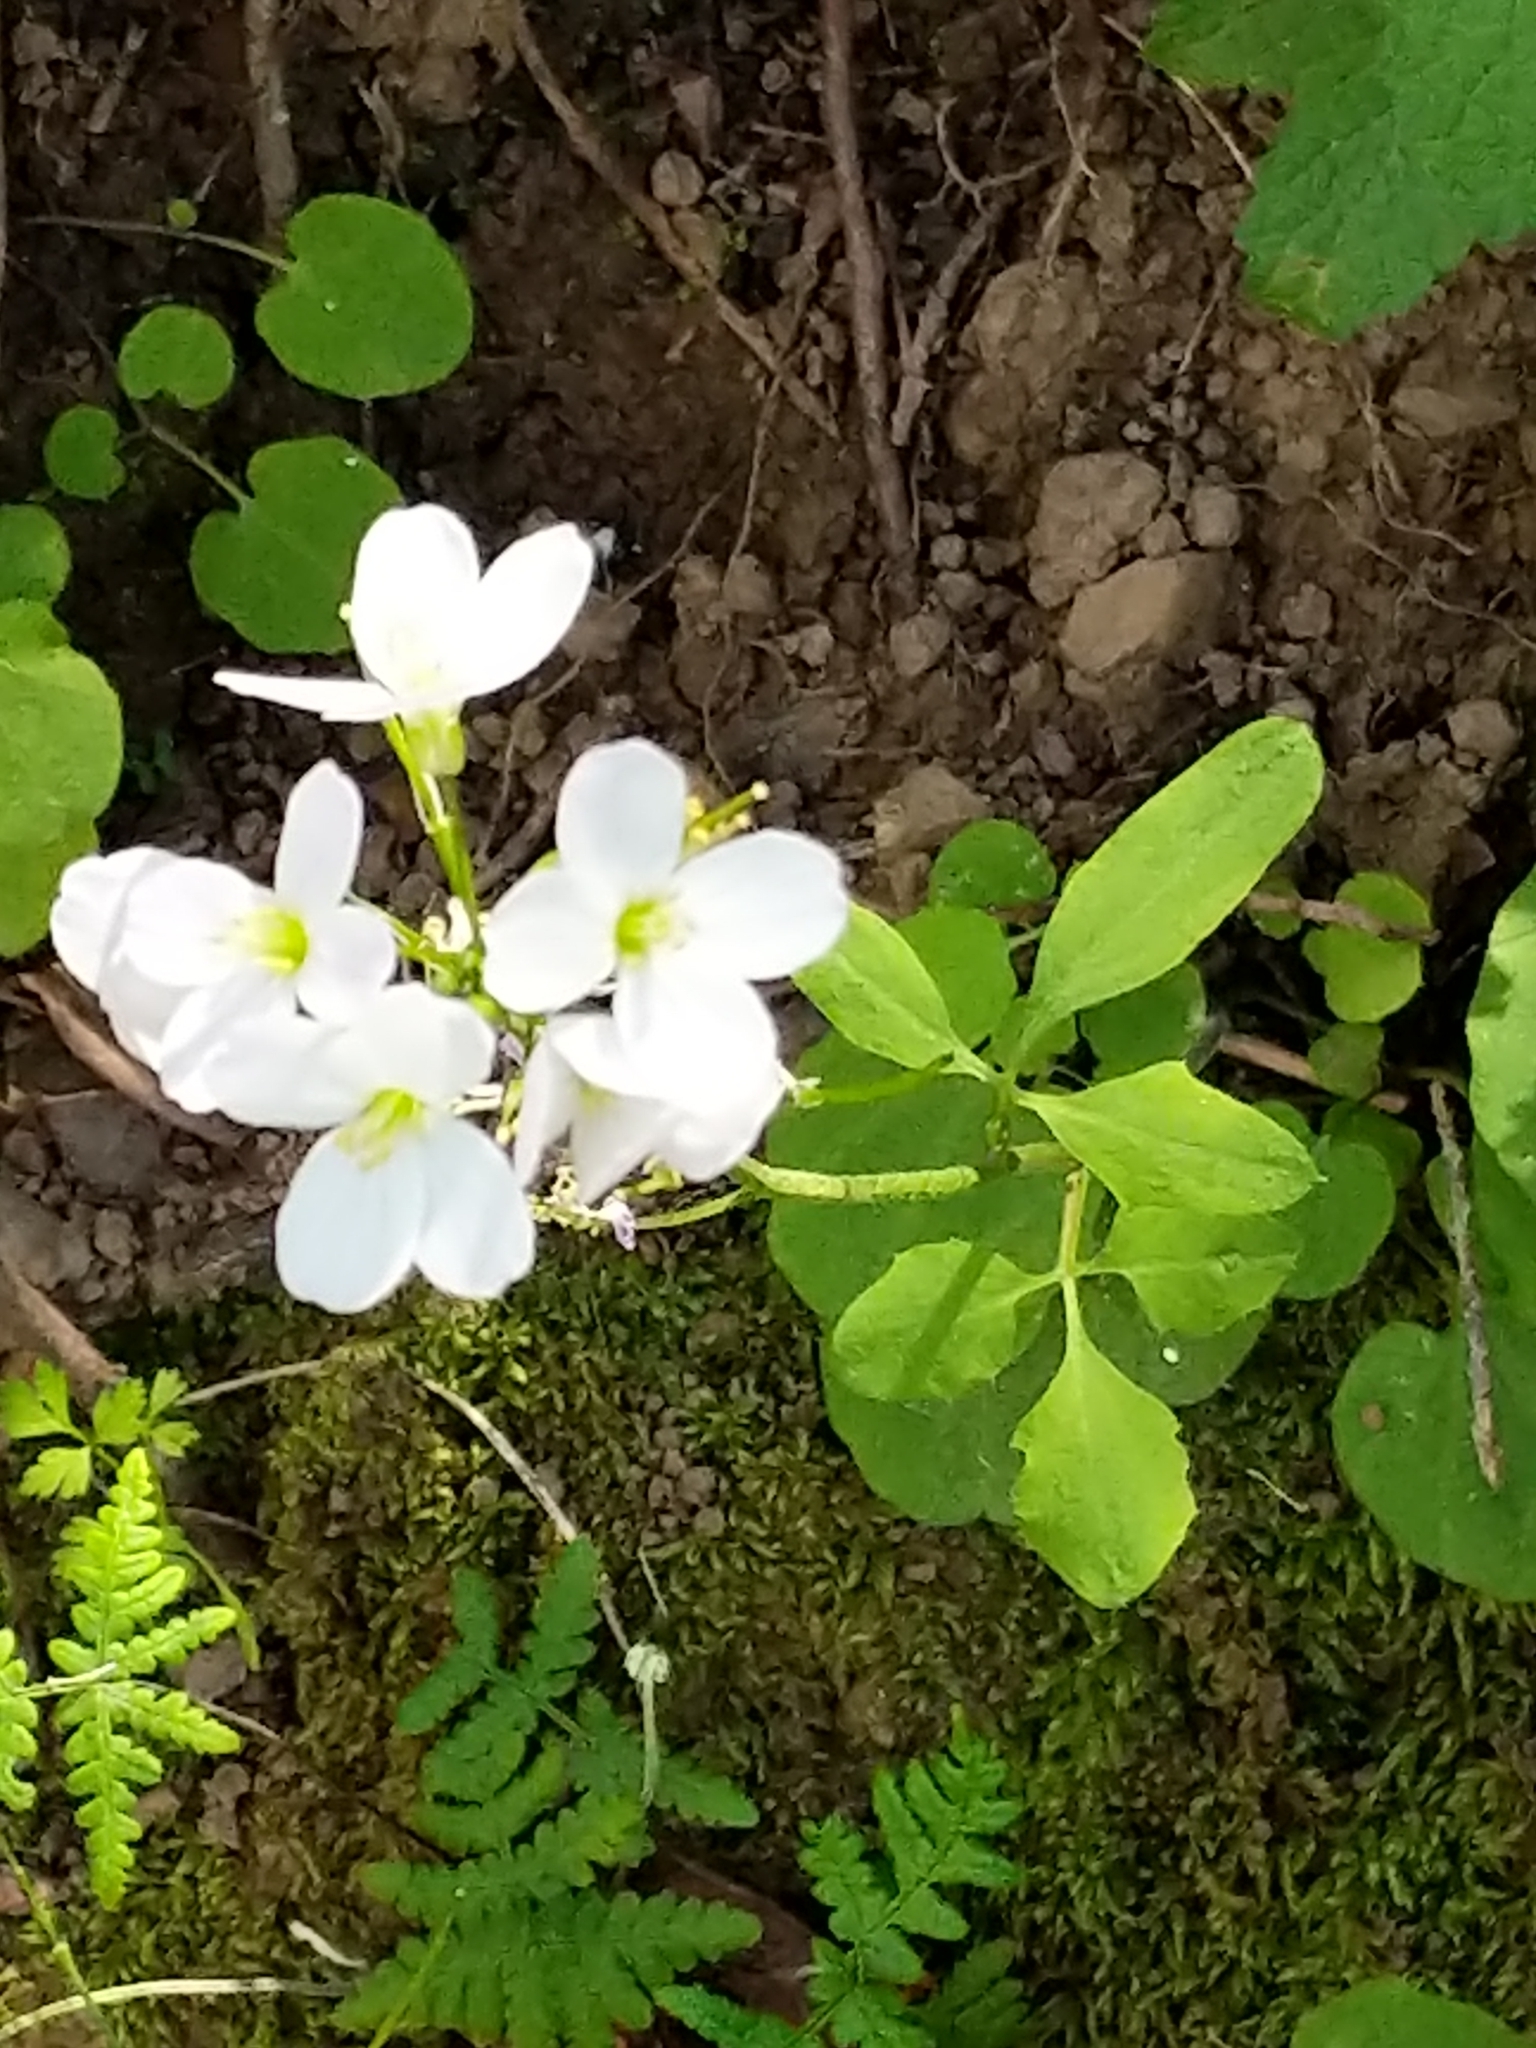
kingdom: Plantae
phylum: Tracheophyta
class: Magnoliopsida
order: Brassicales
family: Brassicaceae
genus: Cardamine
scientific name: Cardamine californica
